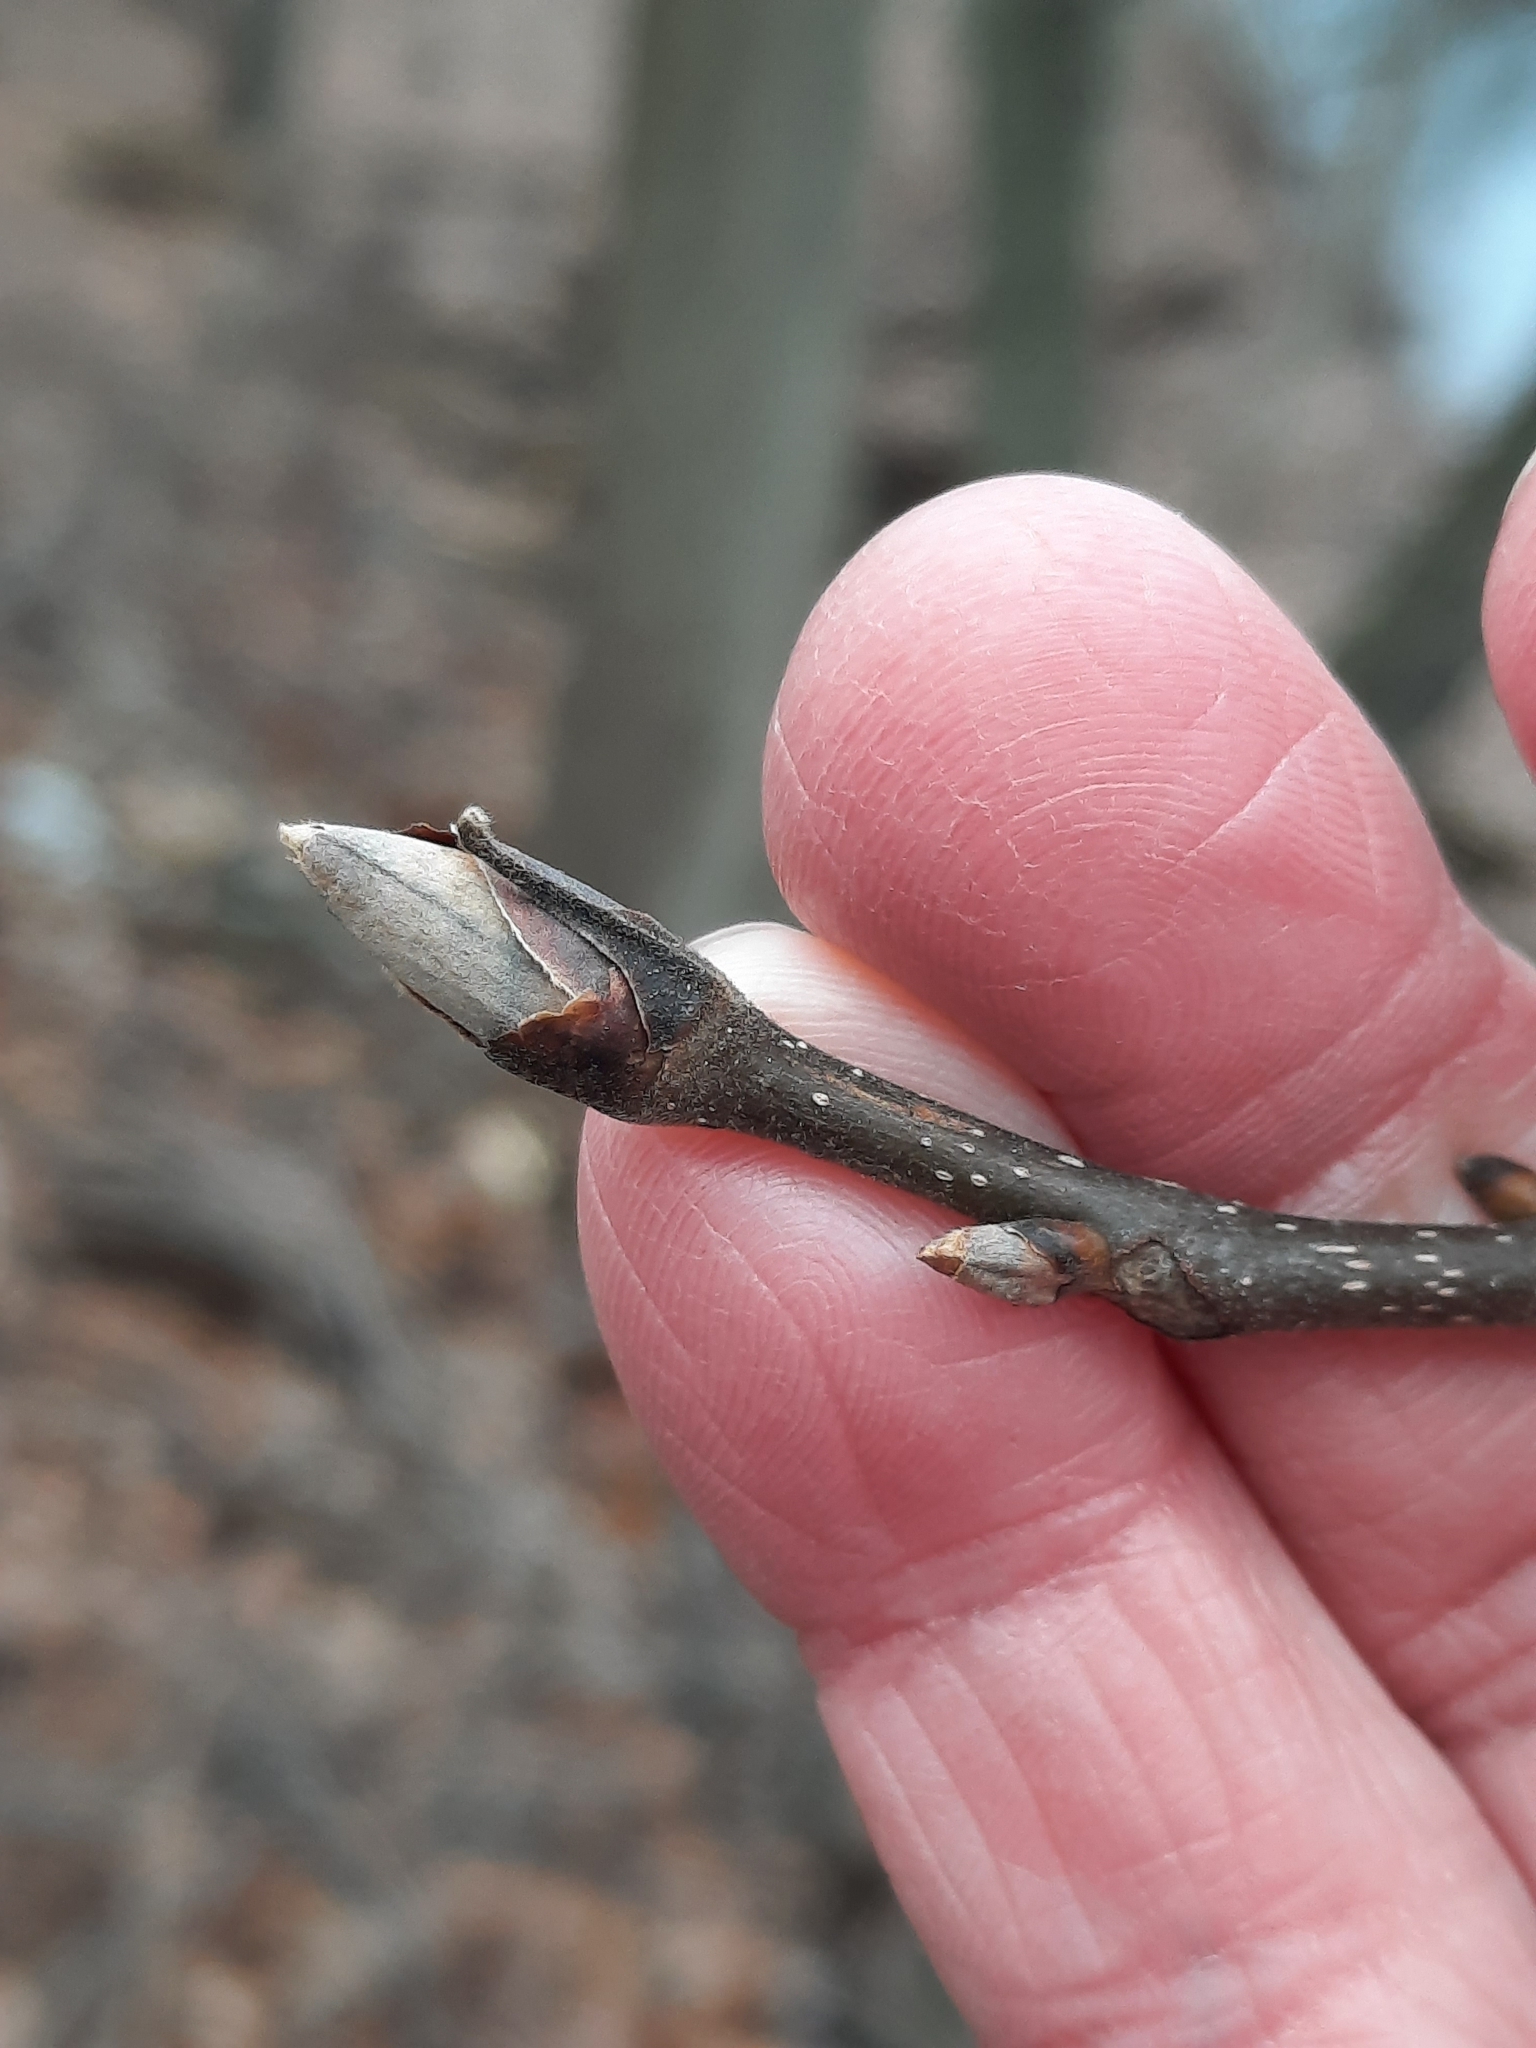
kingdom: Plantae
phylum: Tracheophyta
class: Magnoliopsida
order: Fagales
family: Juglandaceae
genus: Carya
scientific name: Carya
